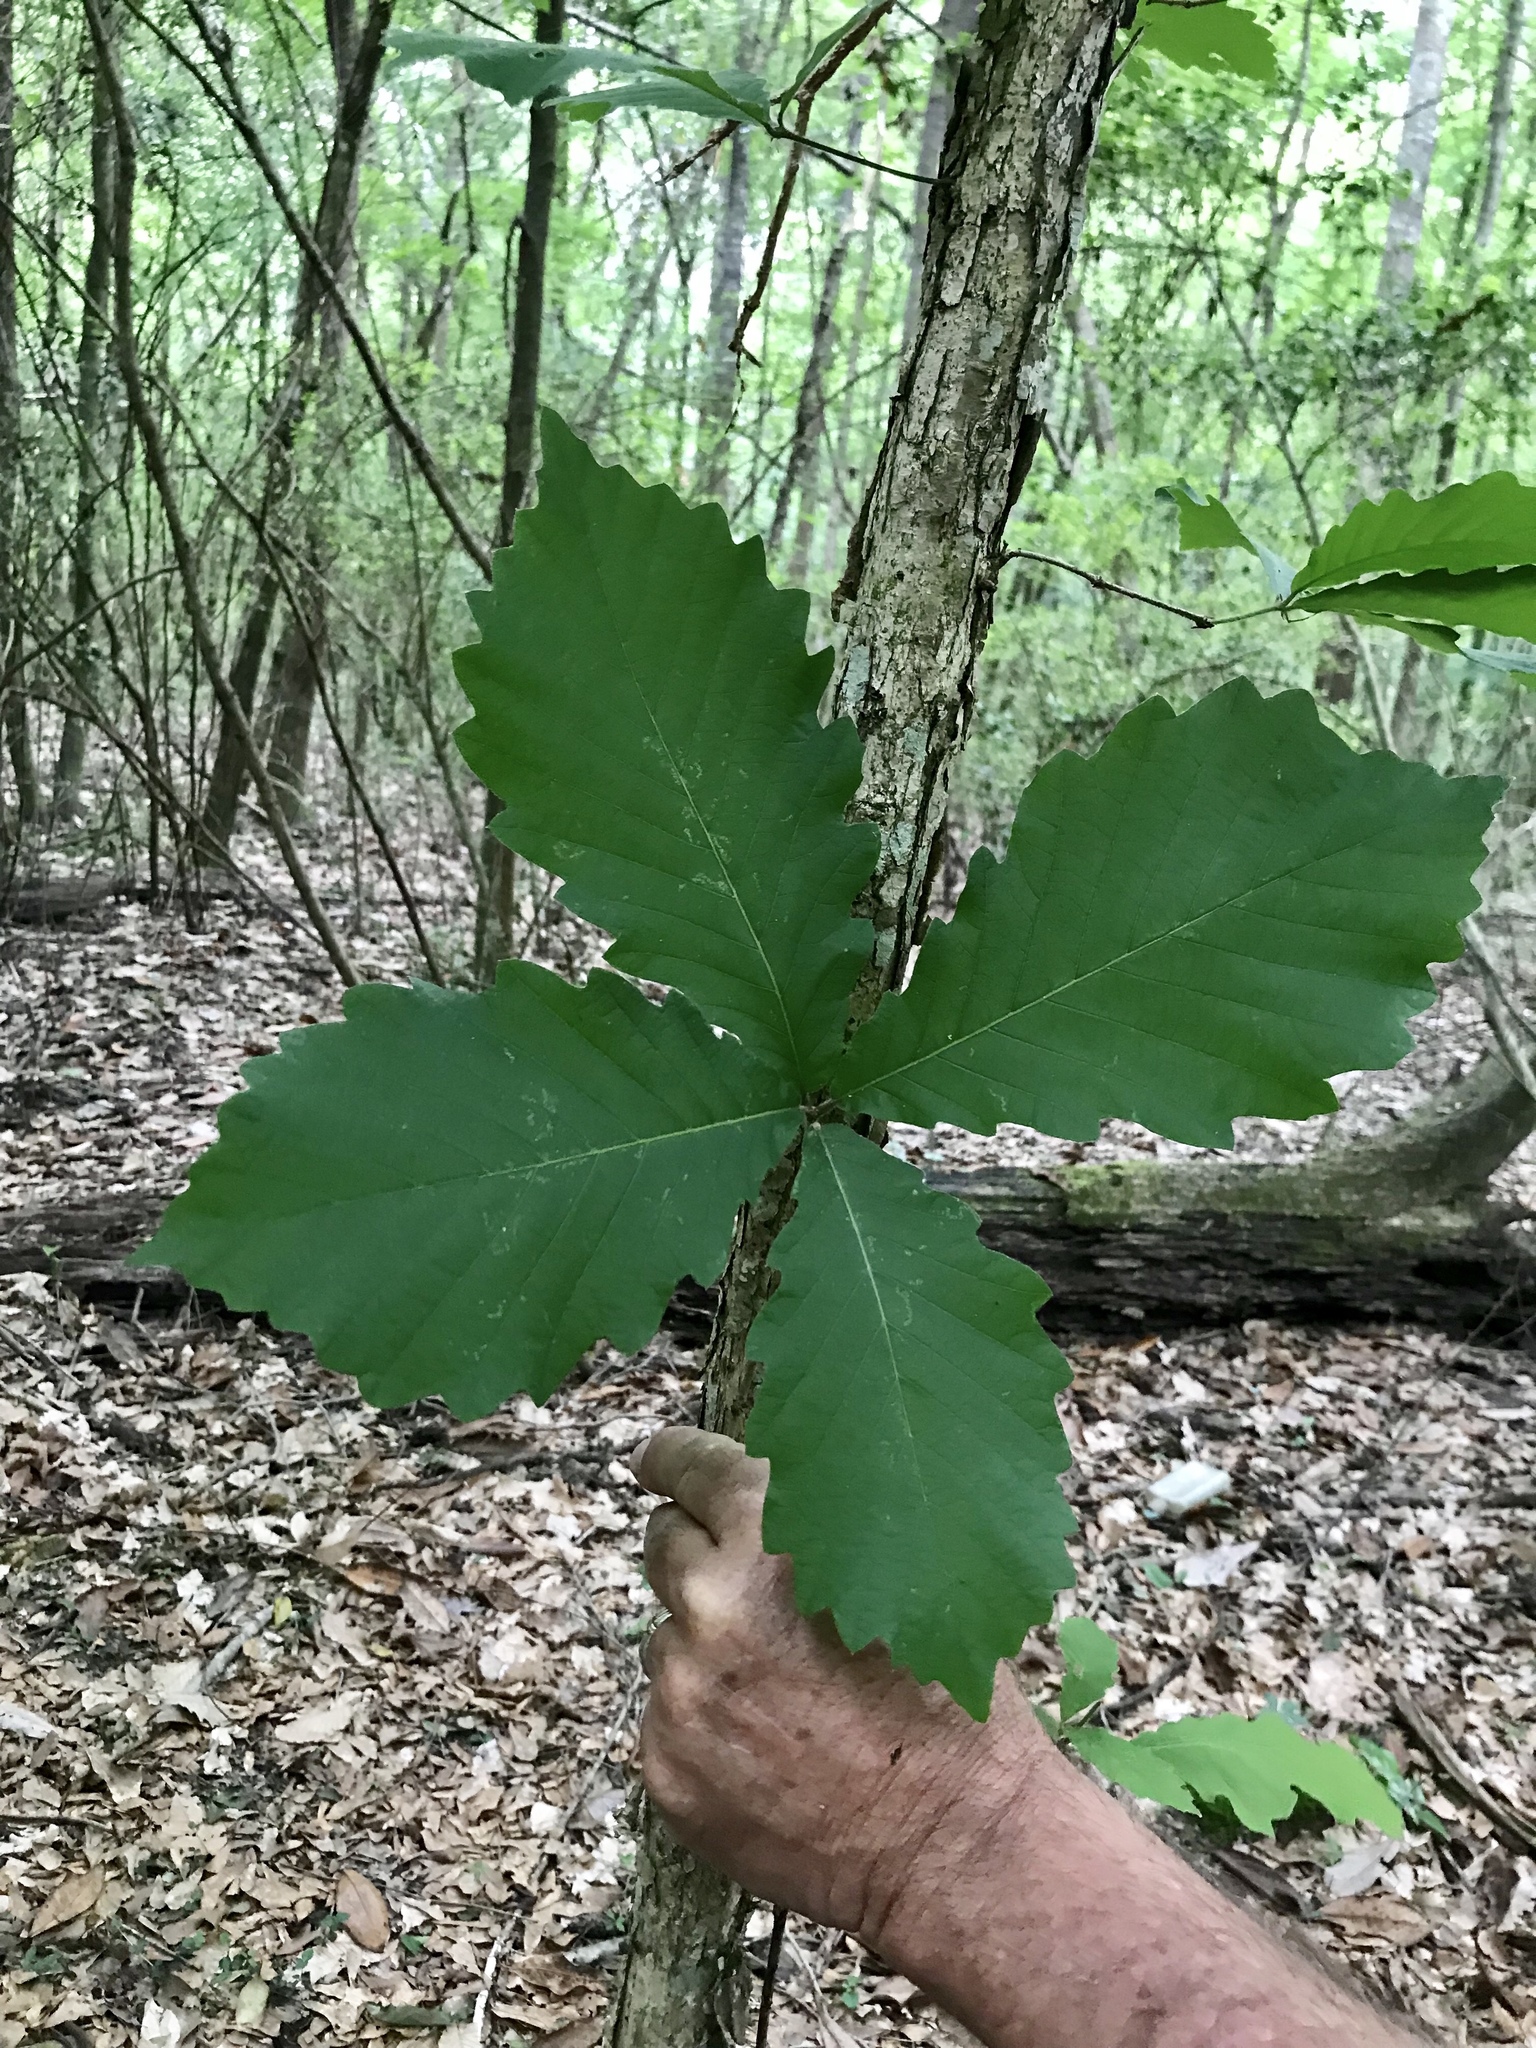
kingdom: Plantae
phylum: Tracheophyta
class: Magnoliopsida
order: Fagales
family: Fagaceae
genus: Quercus
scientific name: Quercus michauxii
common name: Swamp chestnut oak
